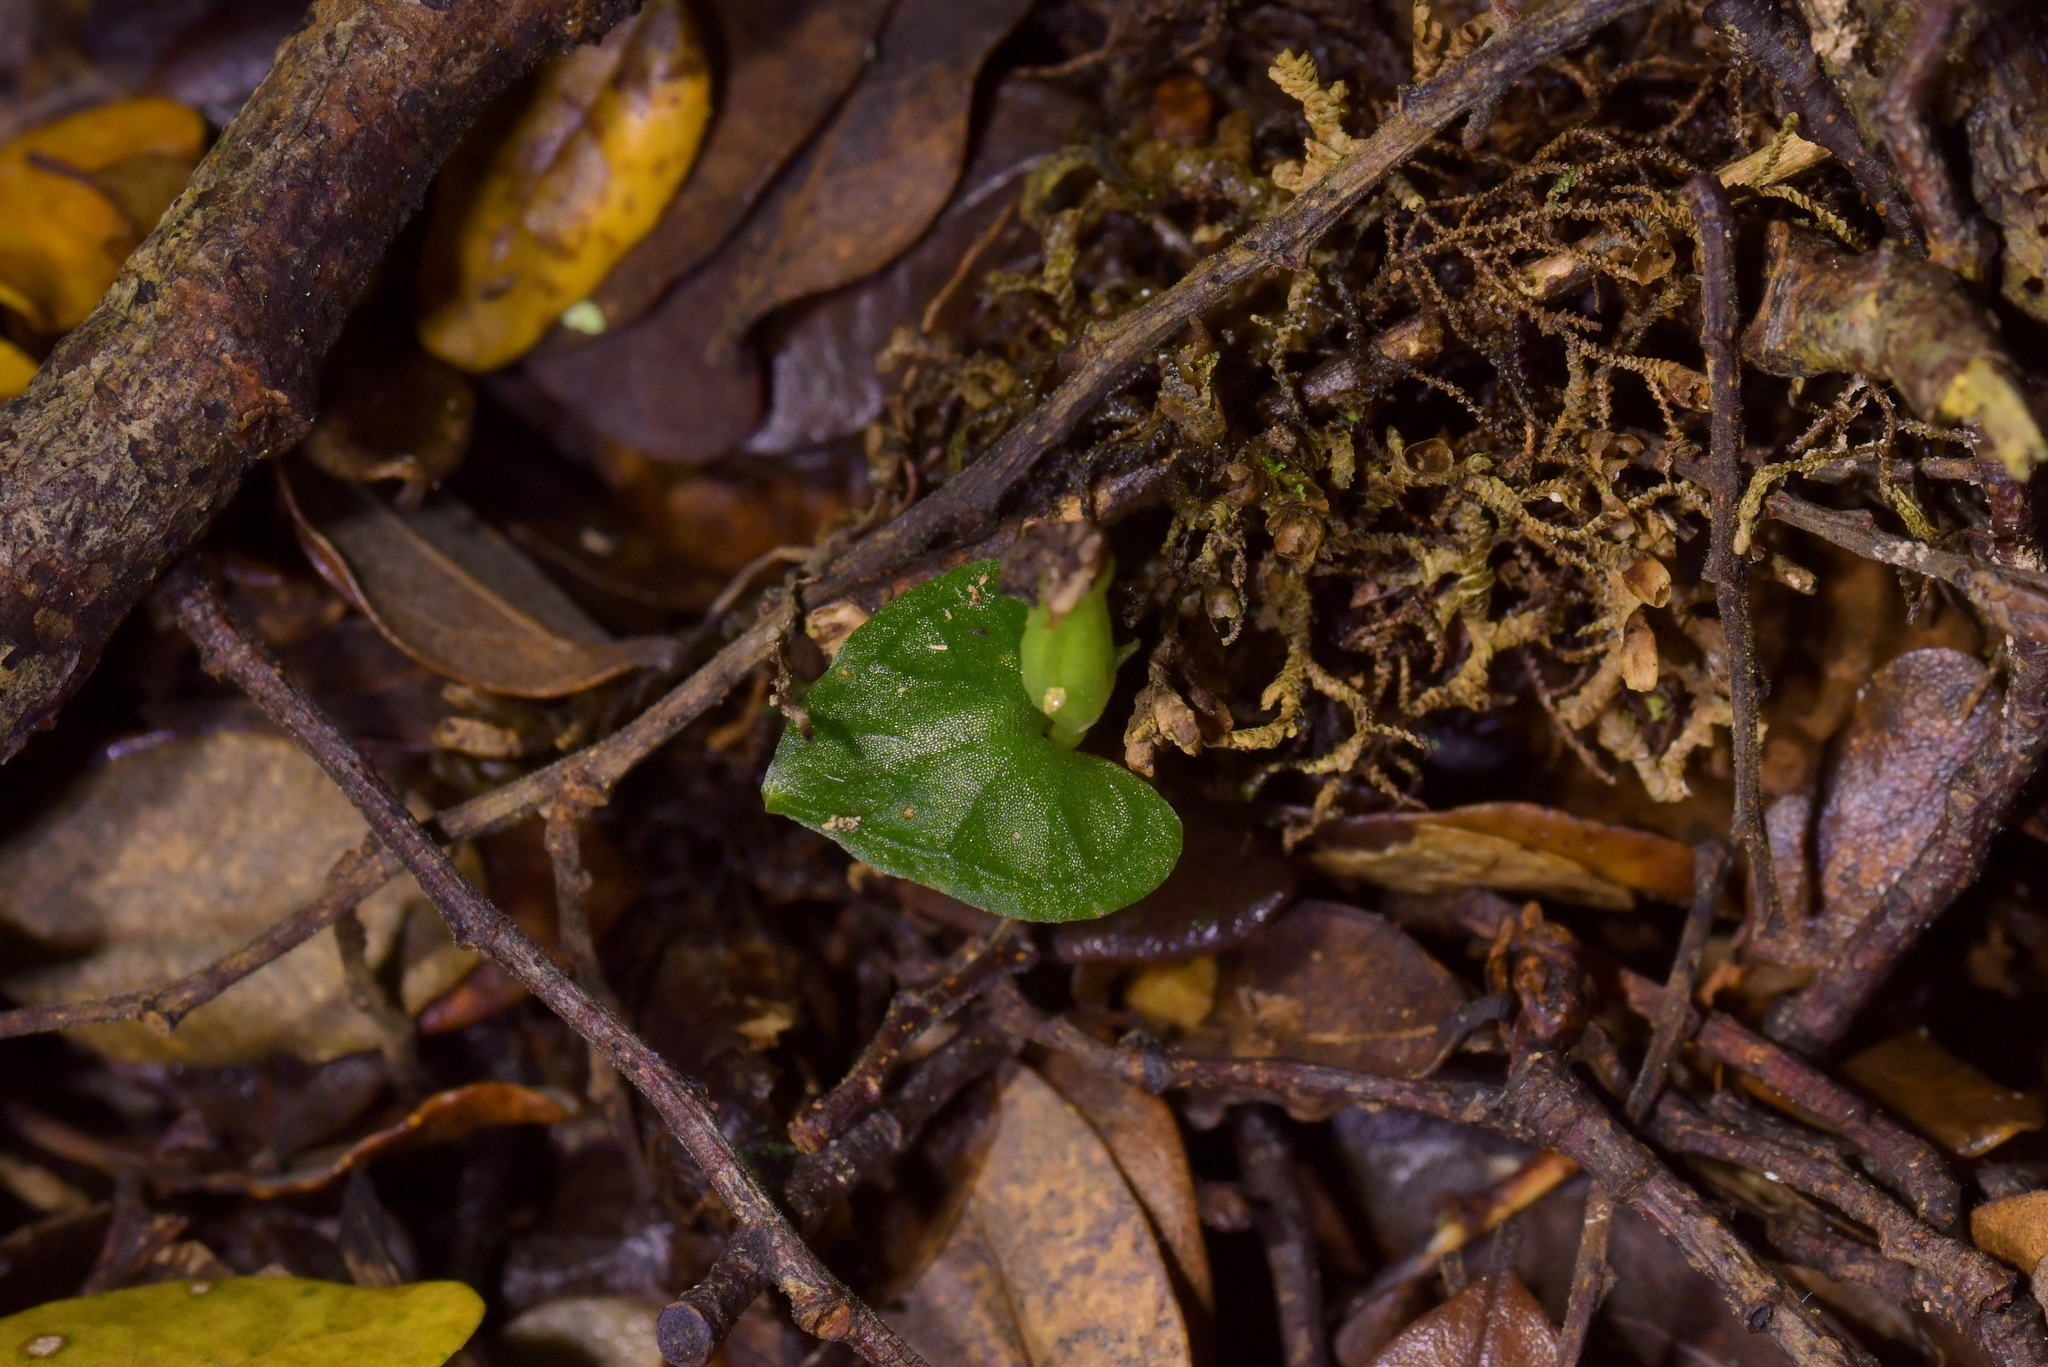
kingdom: Plantae
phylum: Tracheophyta
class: Liliopsida
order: Asparagales
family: Orchidaceae
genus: Corybas
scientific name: Corybas cheesemanii
